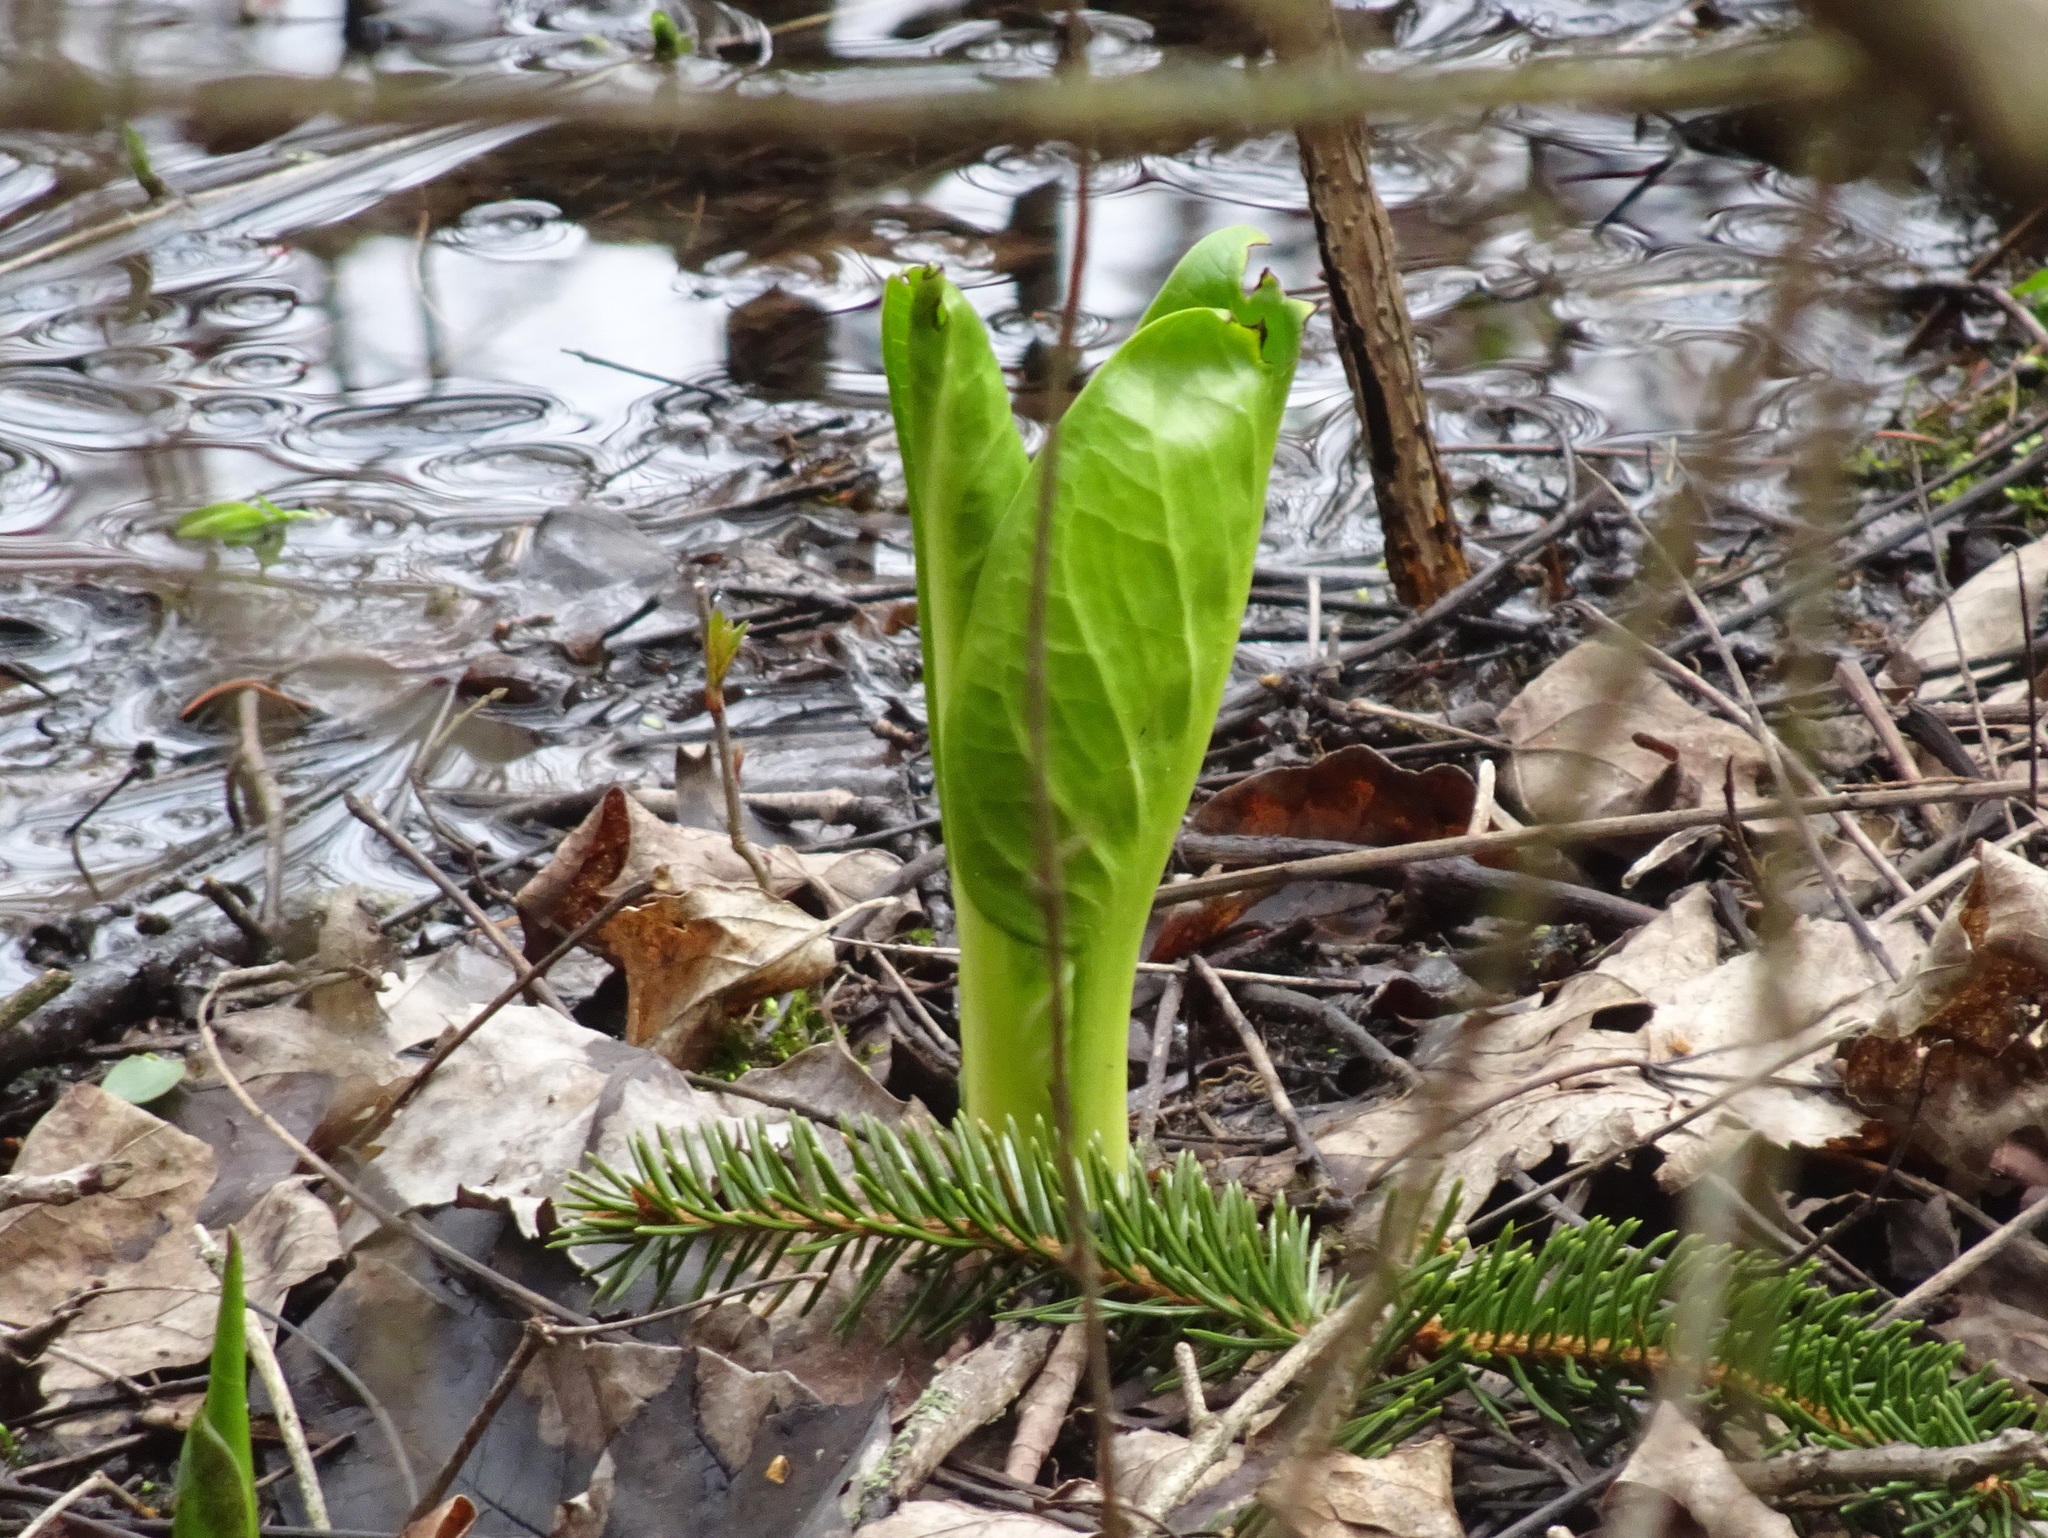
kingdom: Plantae
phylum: Tracheophyta
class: Liliopsida
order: Alismatales
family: Araceae
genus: Symplocarpus
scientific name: Symplocarpus foetidus
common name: Eastern skunk cabbage
